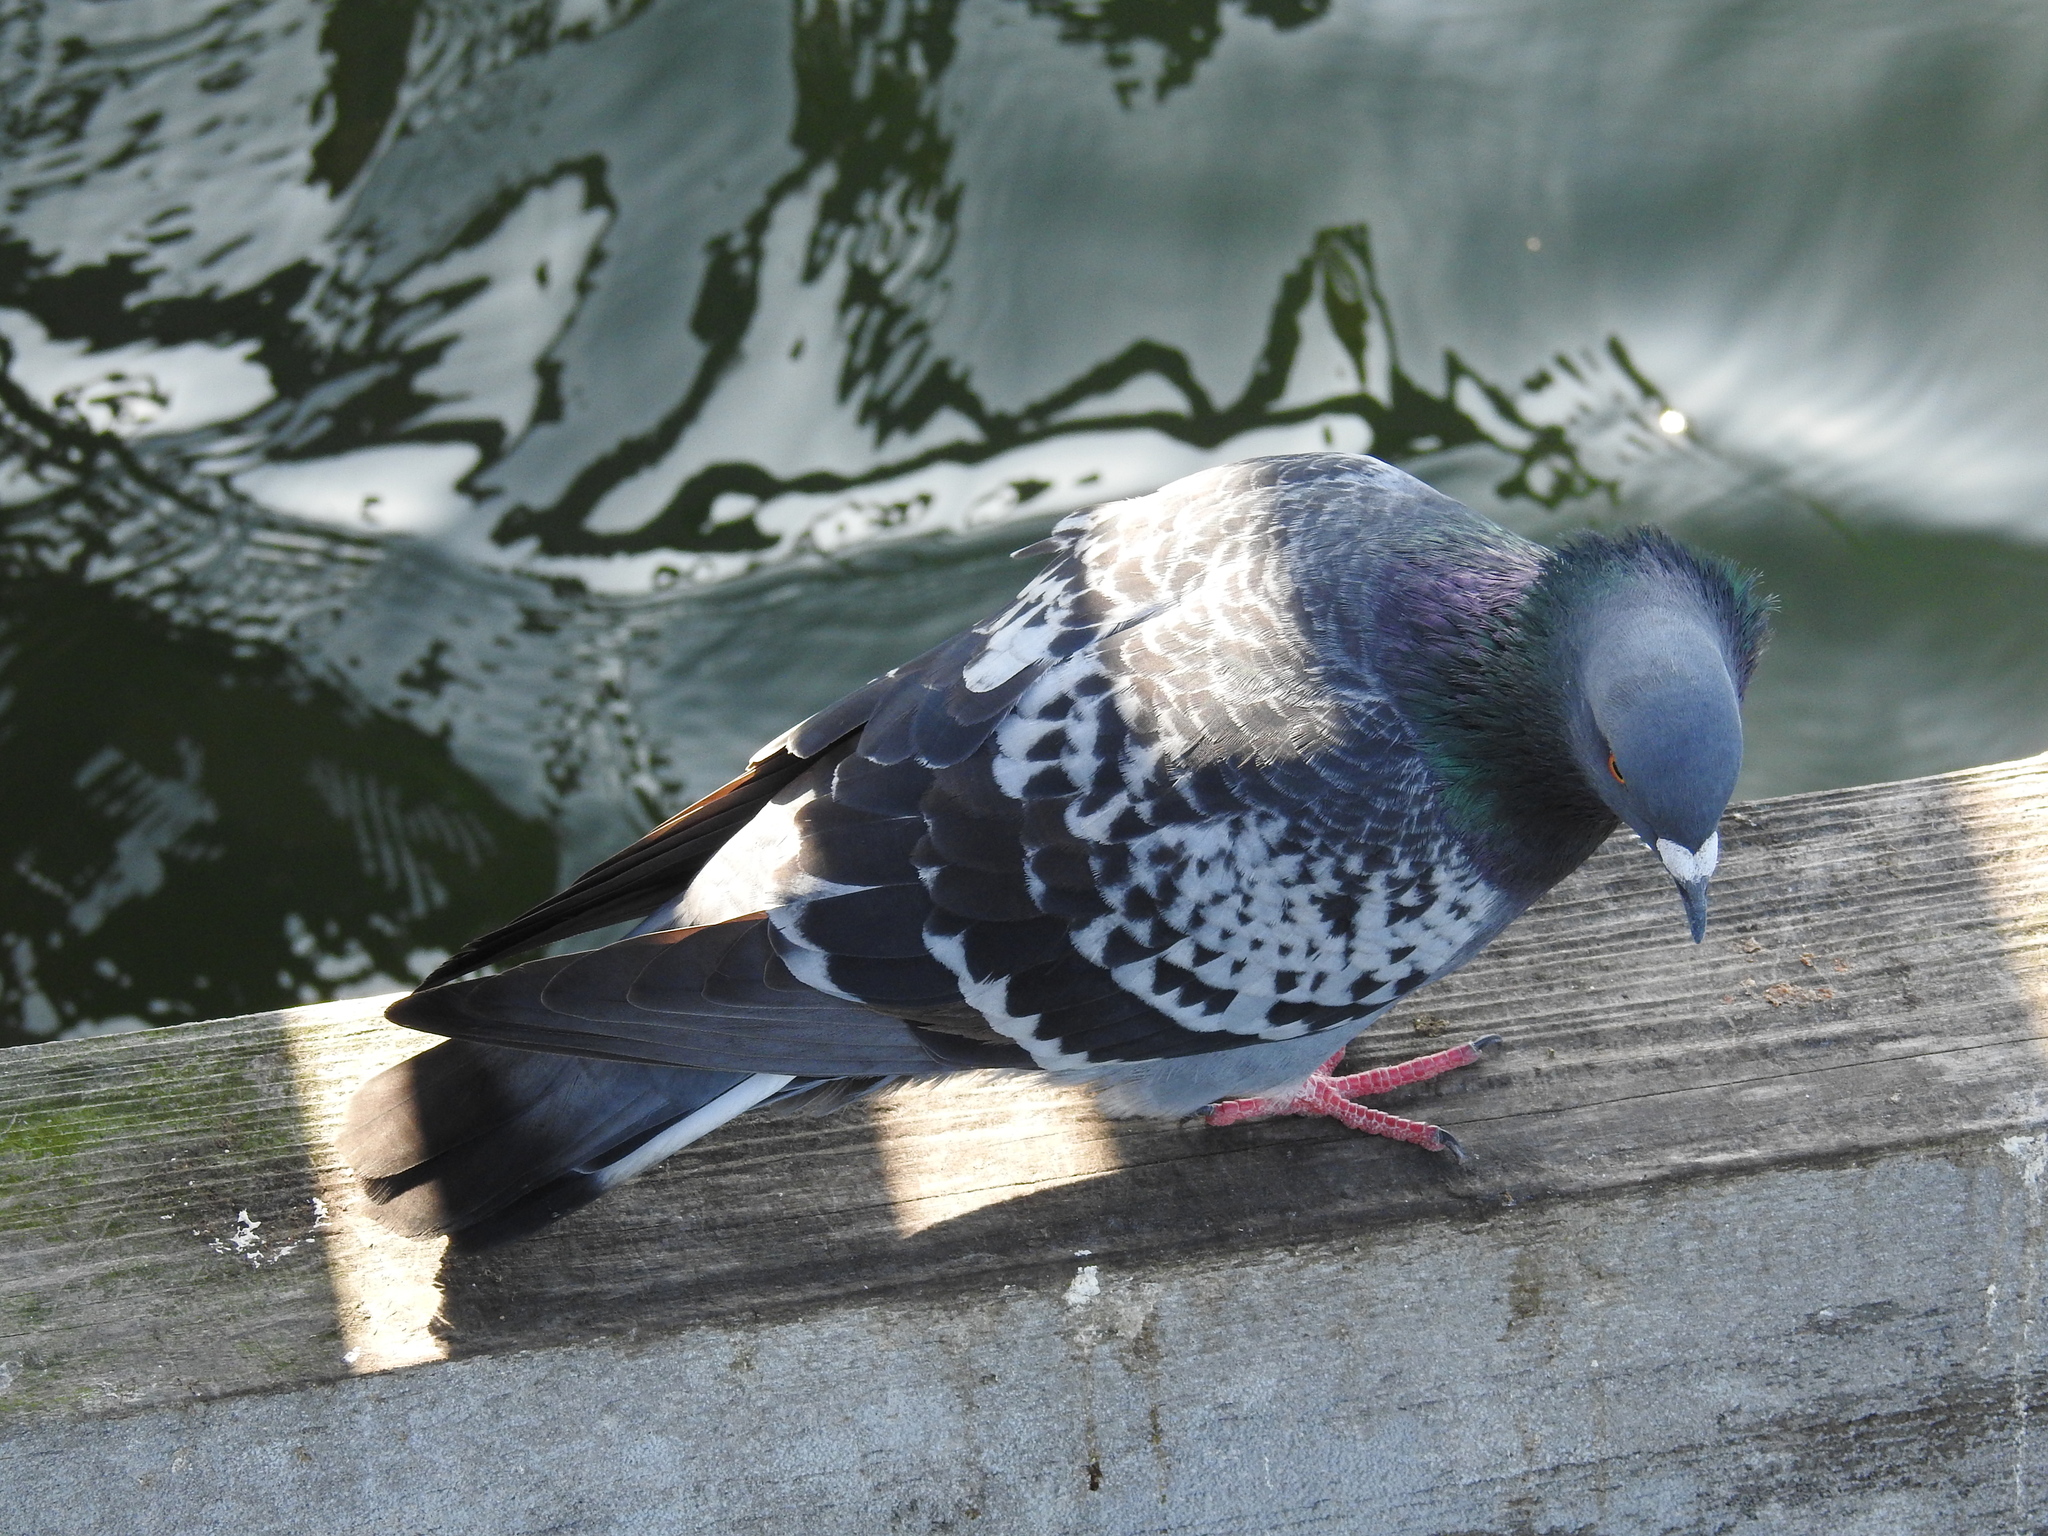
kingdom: Animalia
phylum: Chordata
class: Aves
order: Columbiformes
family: Columbidae
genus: Columba
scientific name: Columba livia
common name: Rock pigeon
